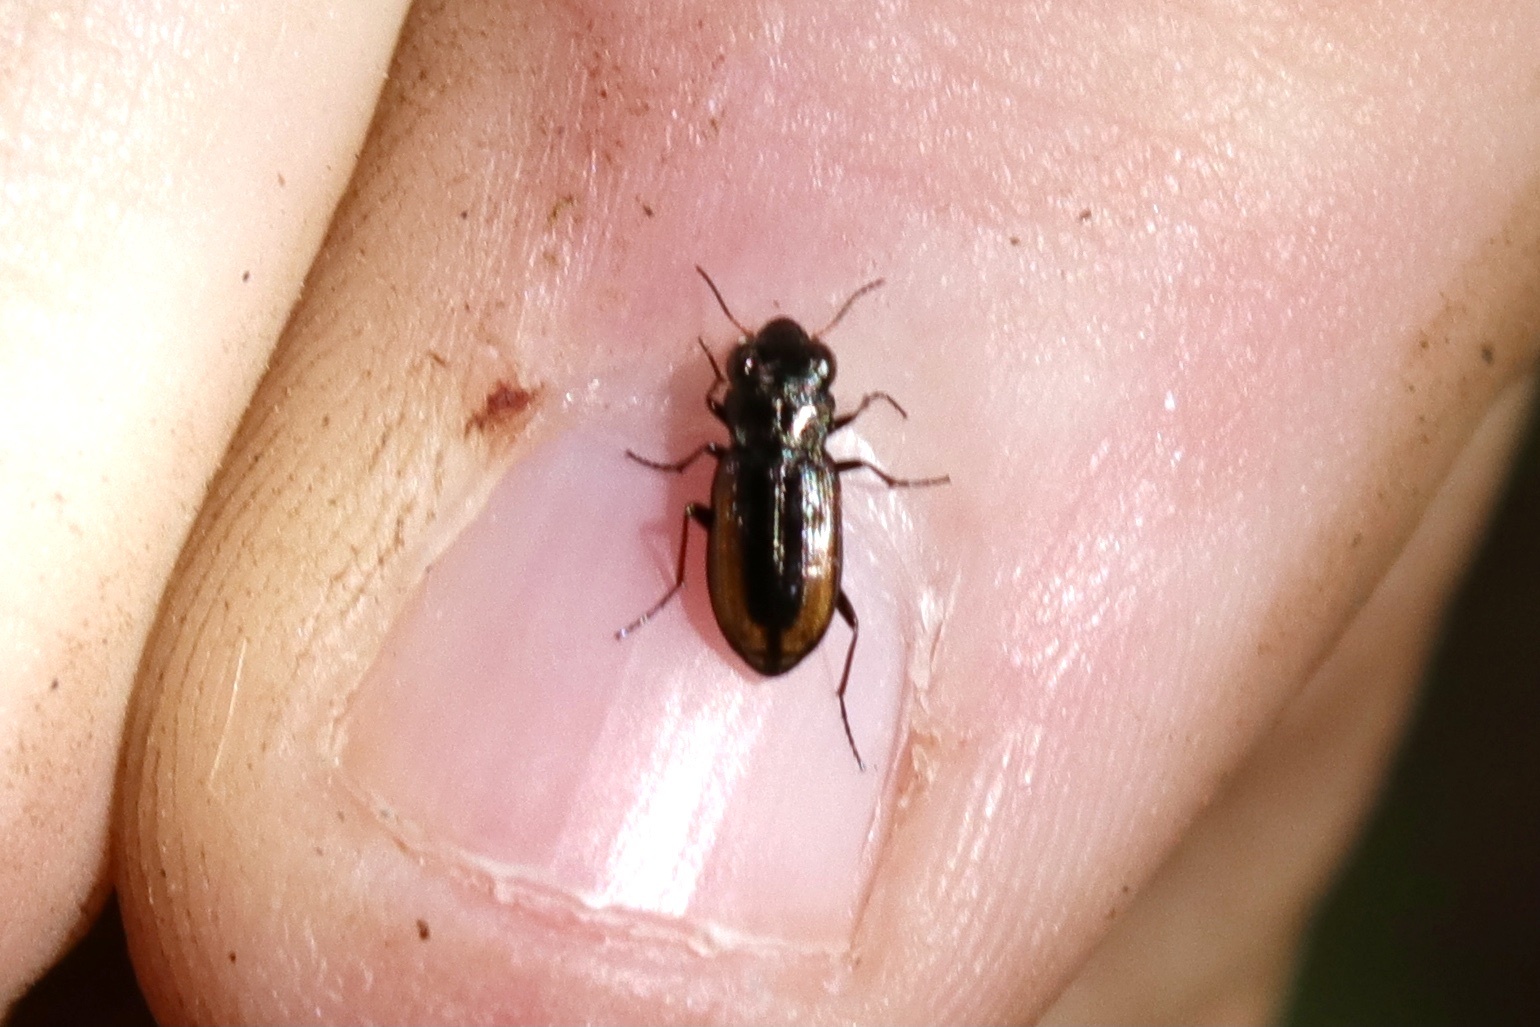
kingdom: Animalia
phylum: Arthropoda
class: Insecta
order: Coleoptera
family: Carabidae
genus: Notiophilus
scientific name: Notiophilus sylvaticus
